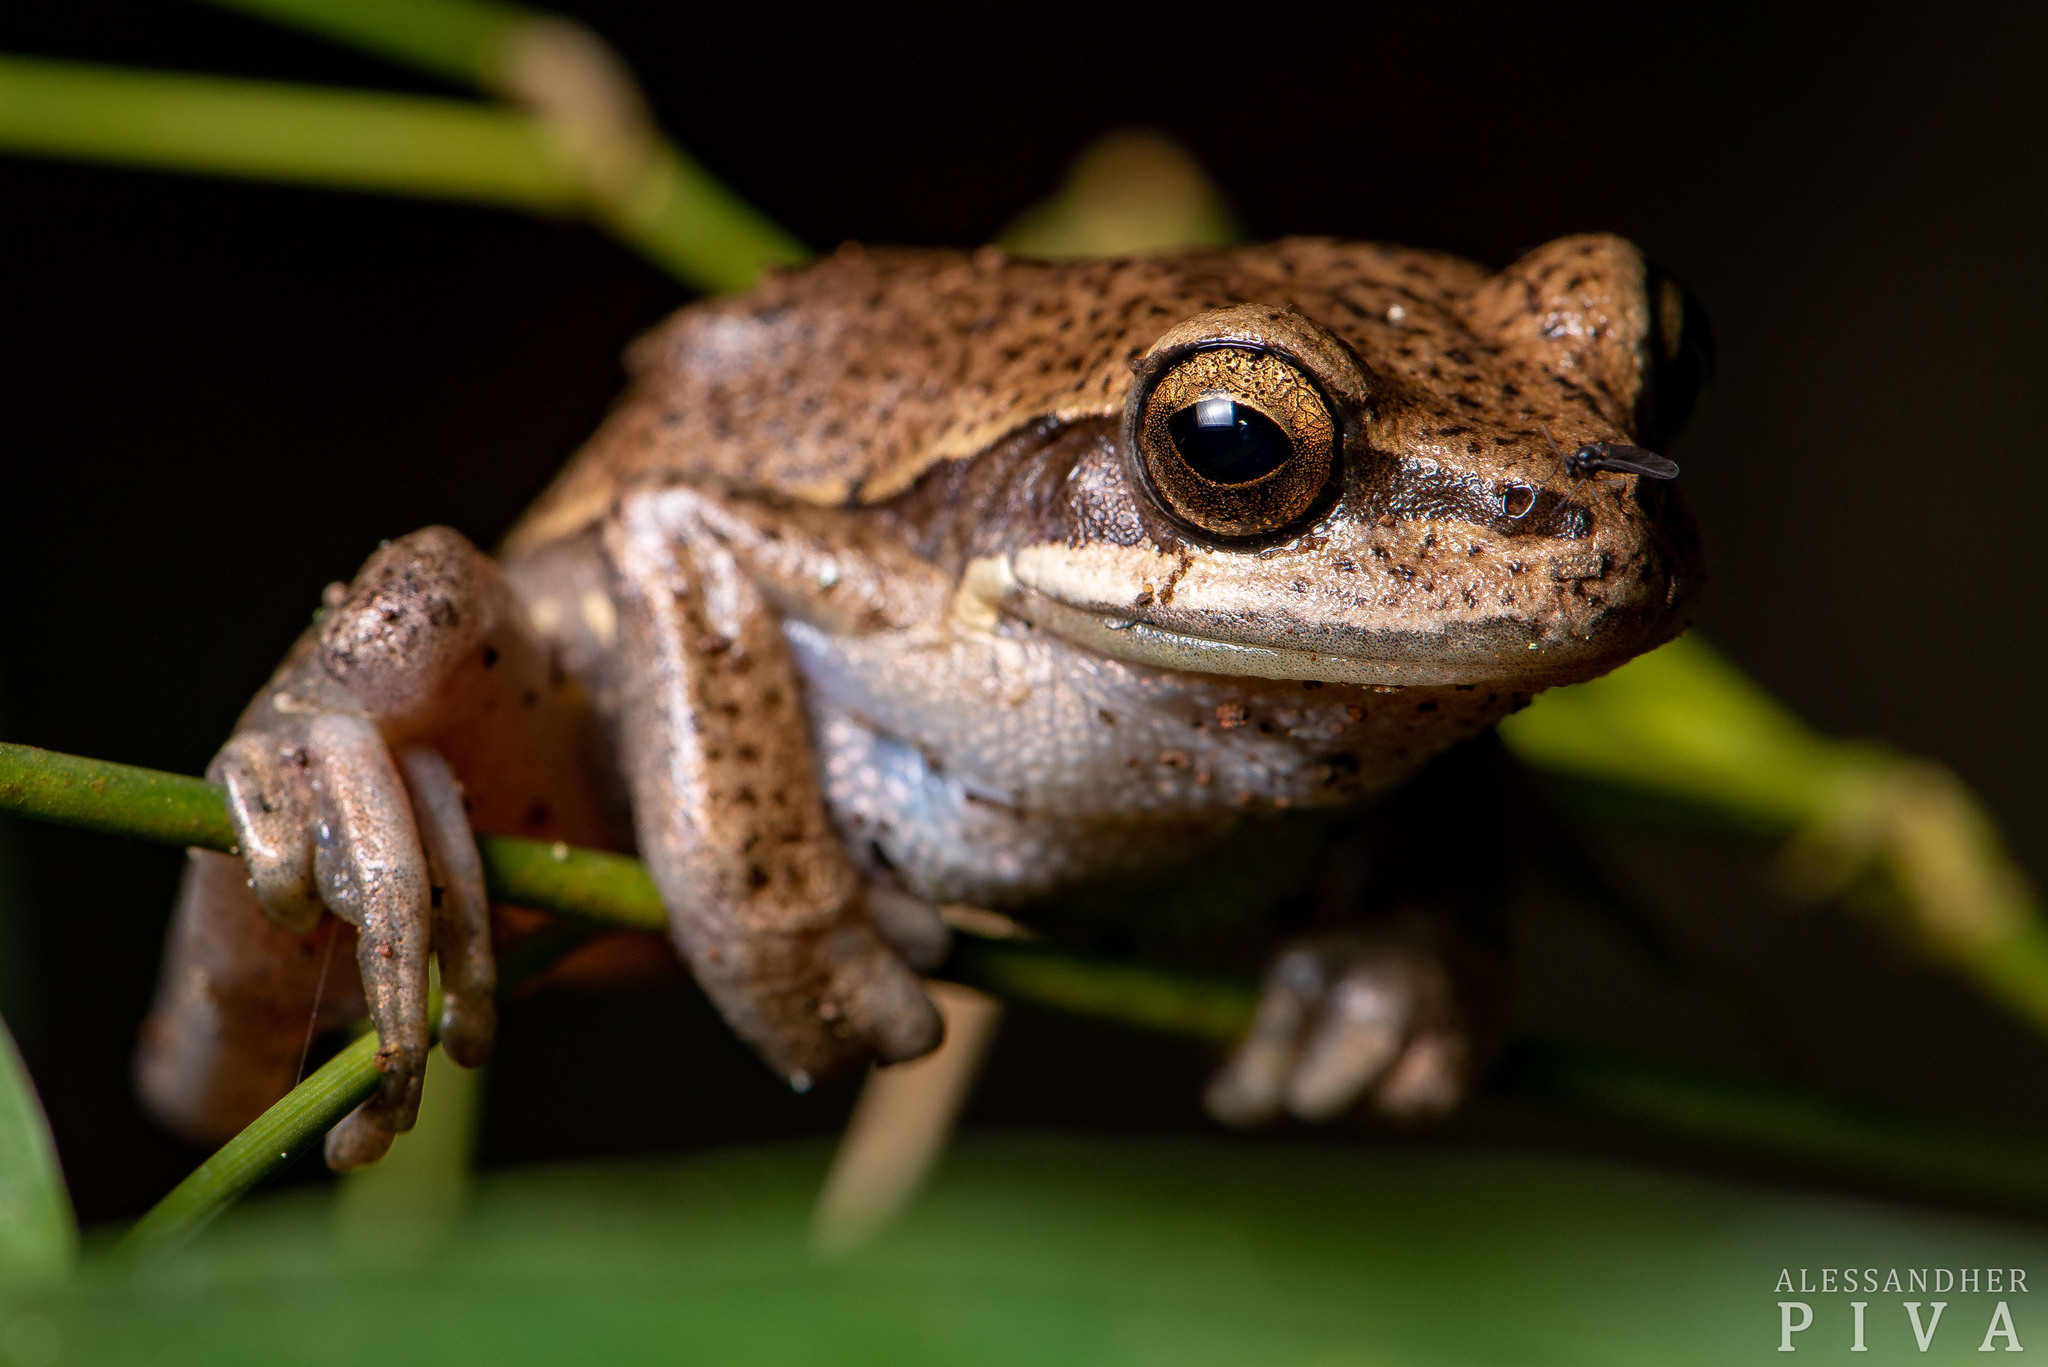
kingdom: Animalia
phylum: Chordata
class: Amphibia
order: Anura
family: Hylidae
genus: Boana
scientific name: Boana curupi
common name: Kurupitree frog
